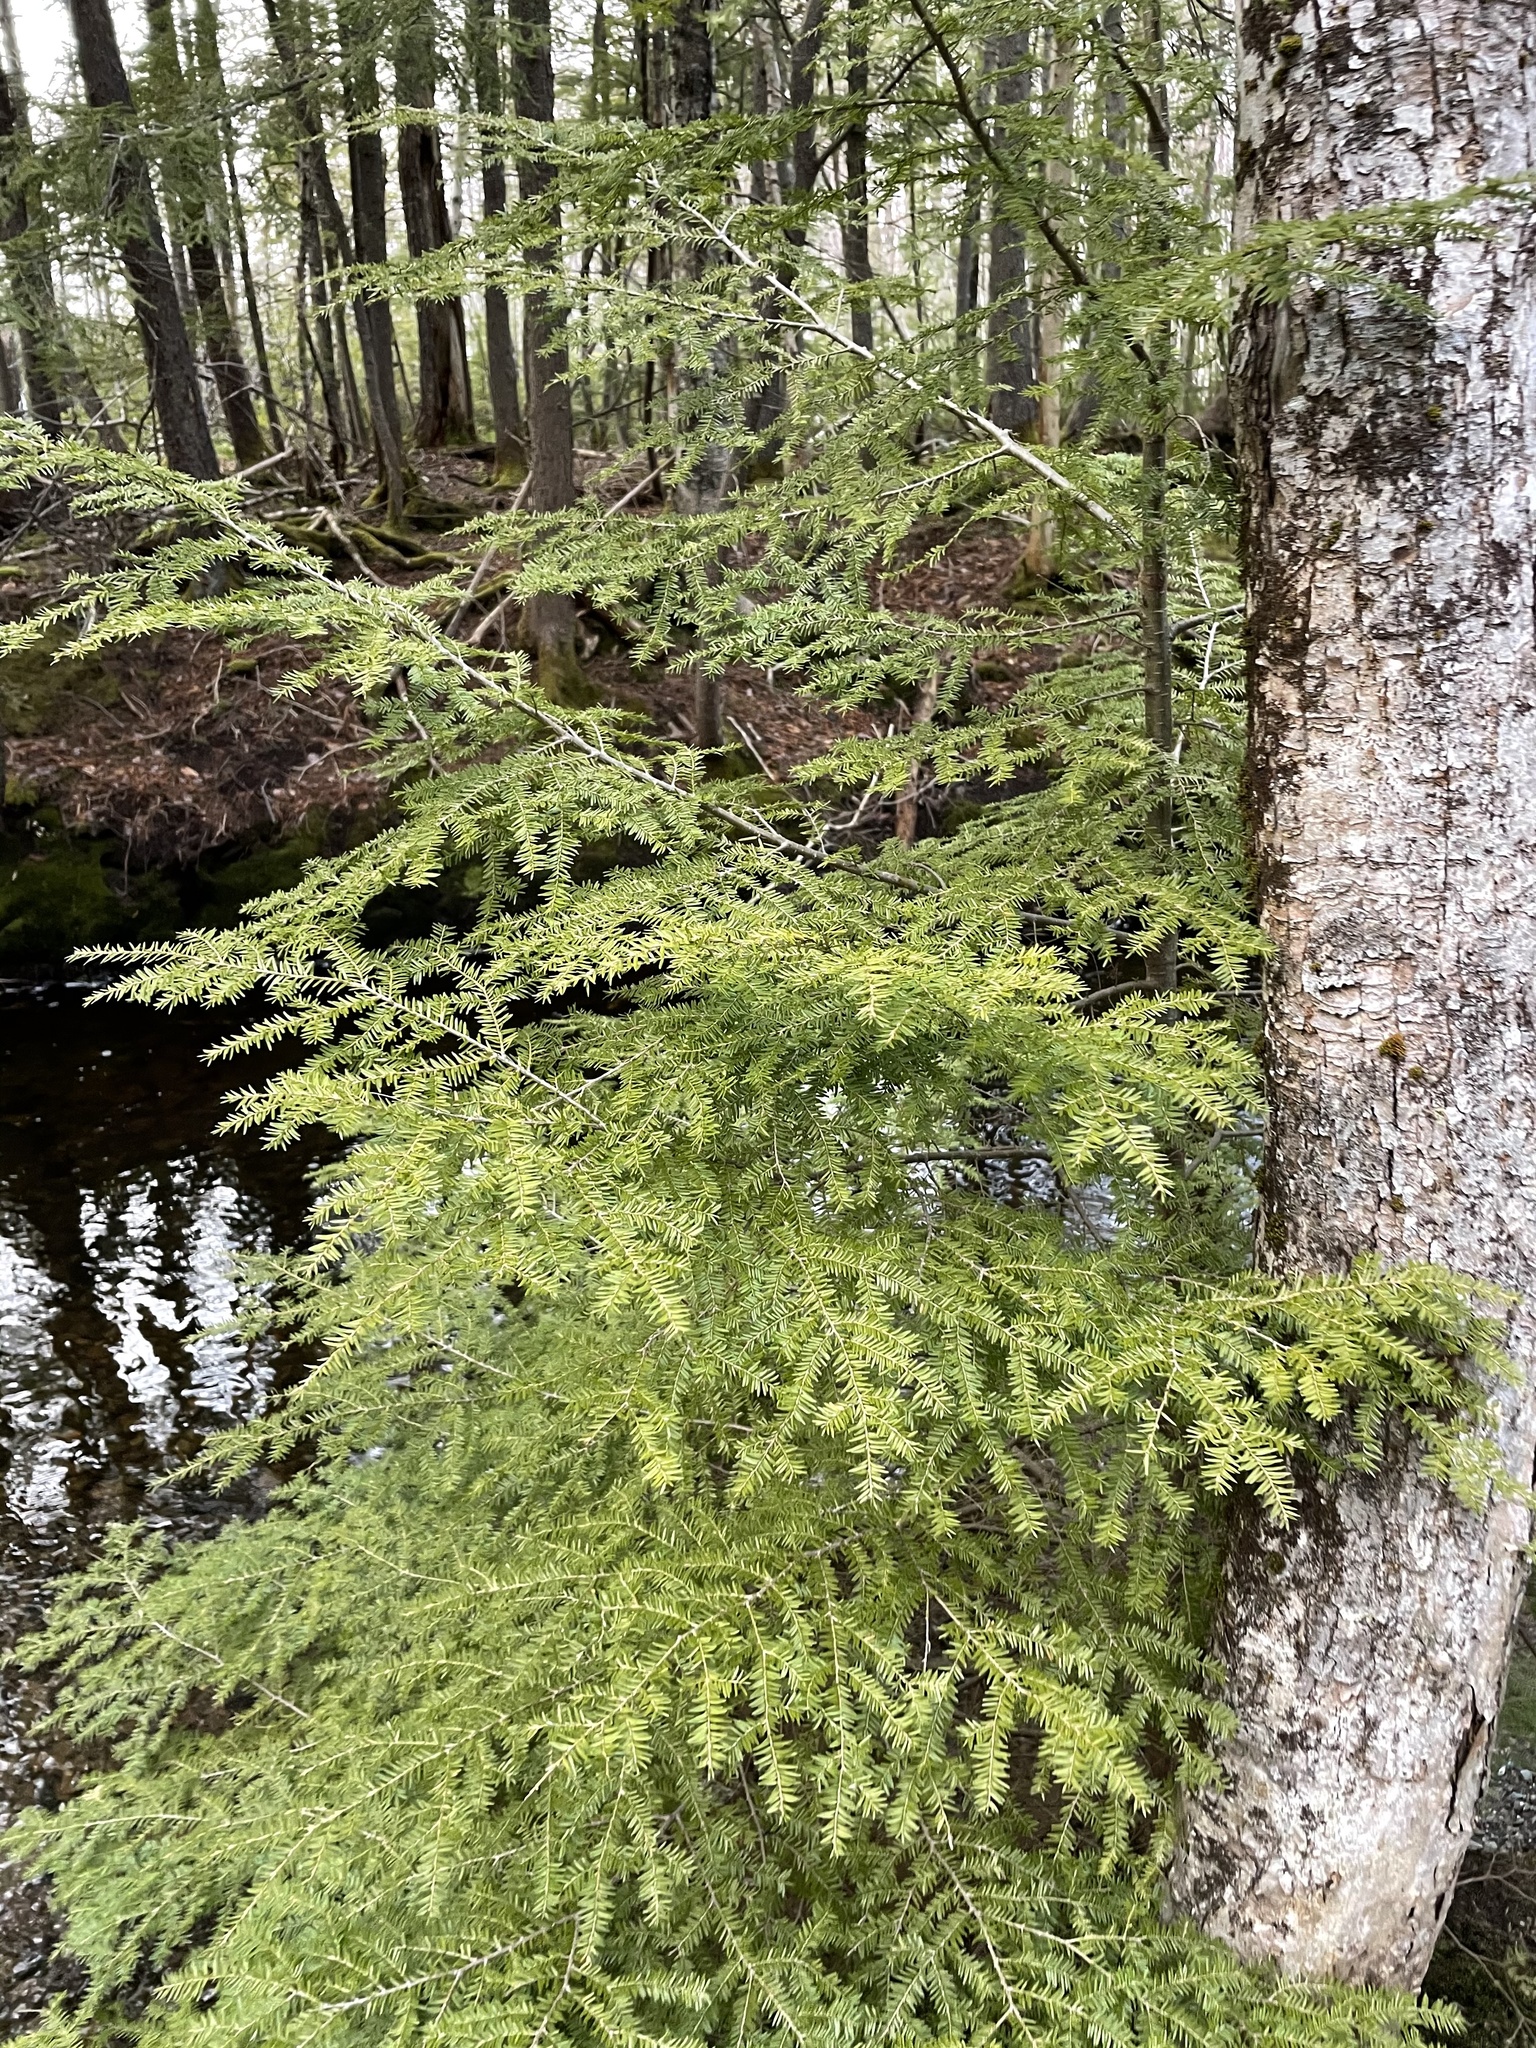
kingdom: Plantae
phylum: Tracheophyta
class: Pinopsida
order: Pinales
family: Pinaceae
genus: Tsuga
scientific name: Tsuga canadensis
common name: Eastern hemlock
